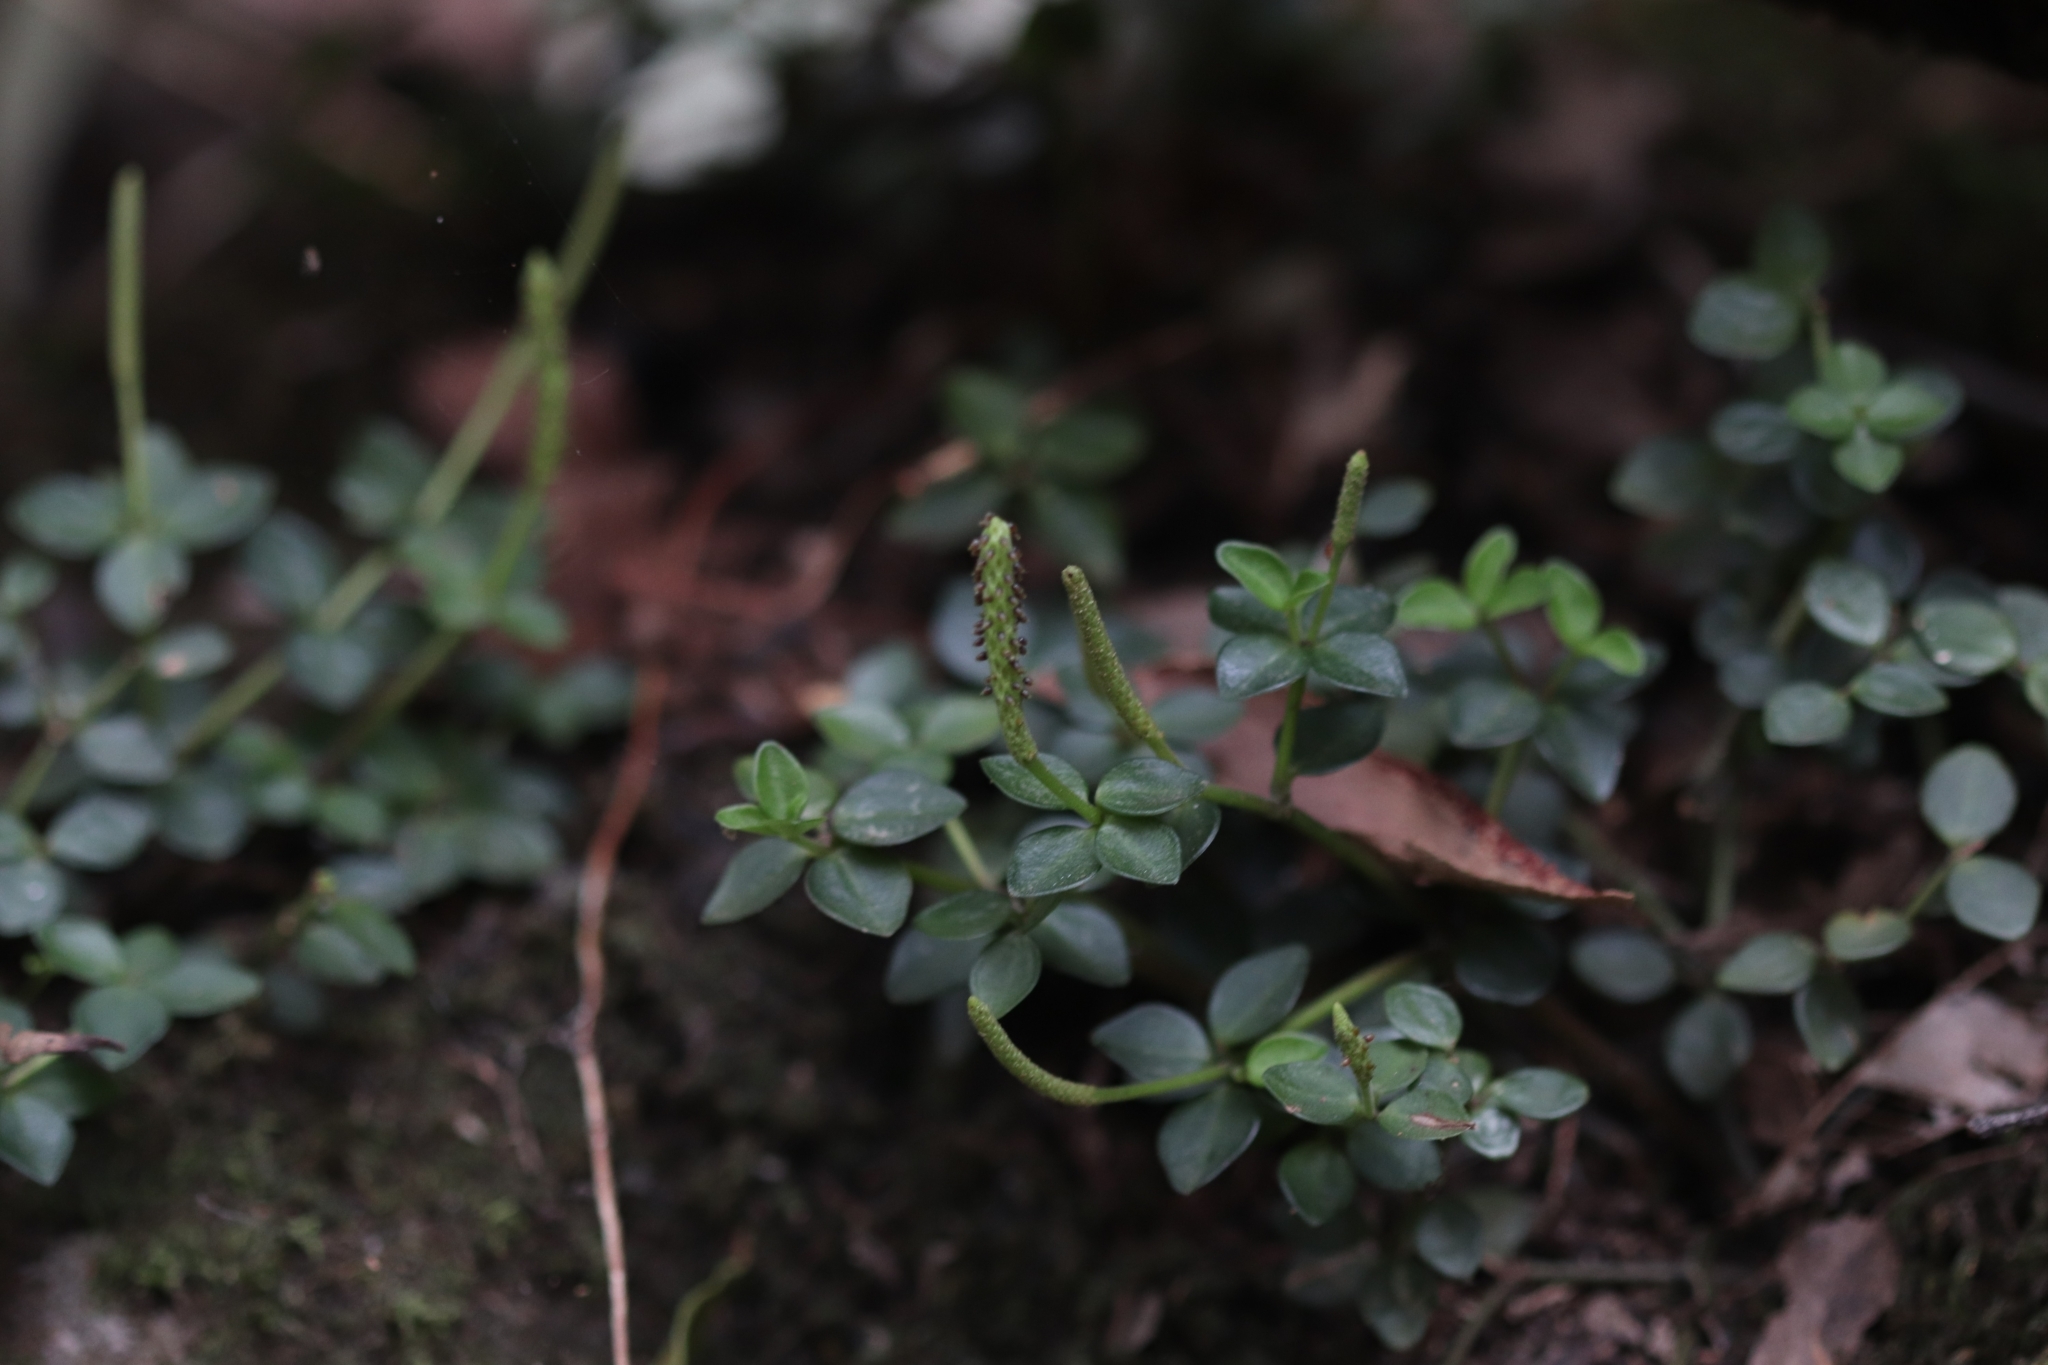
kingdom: Plantae
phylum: Tracheophyta
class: Magnoliopsida
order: Piperales
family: Piperaceae
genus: Peperomia
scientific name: Peperomia tetraphylla
